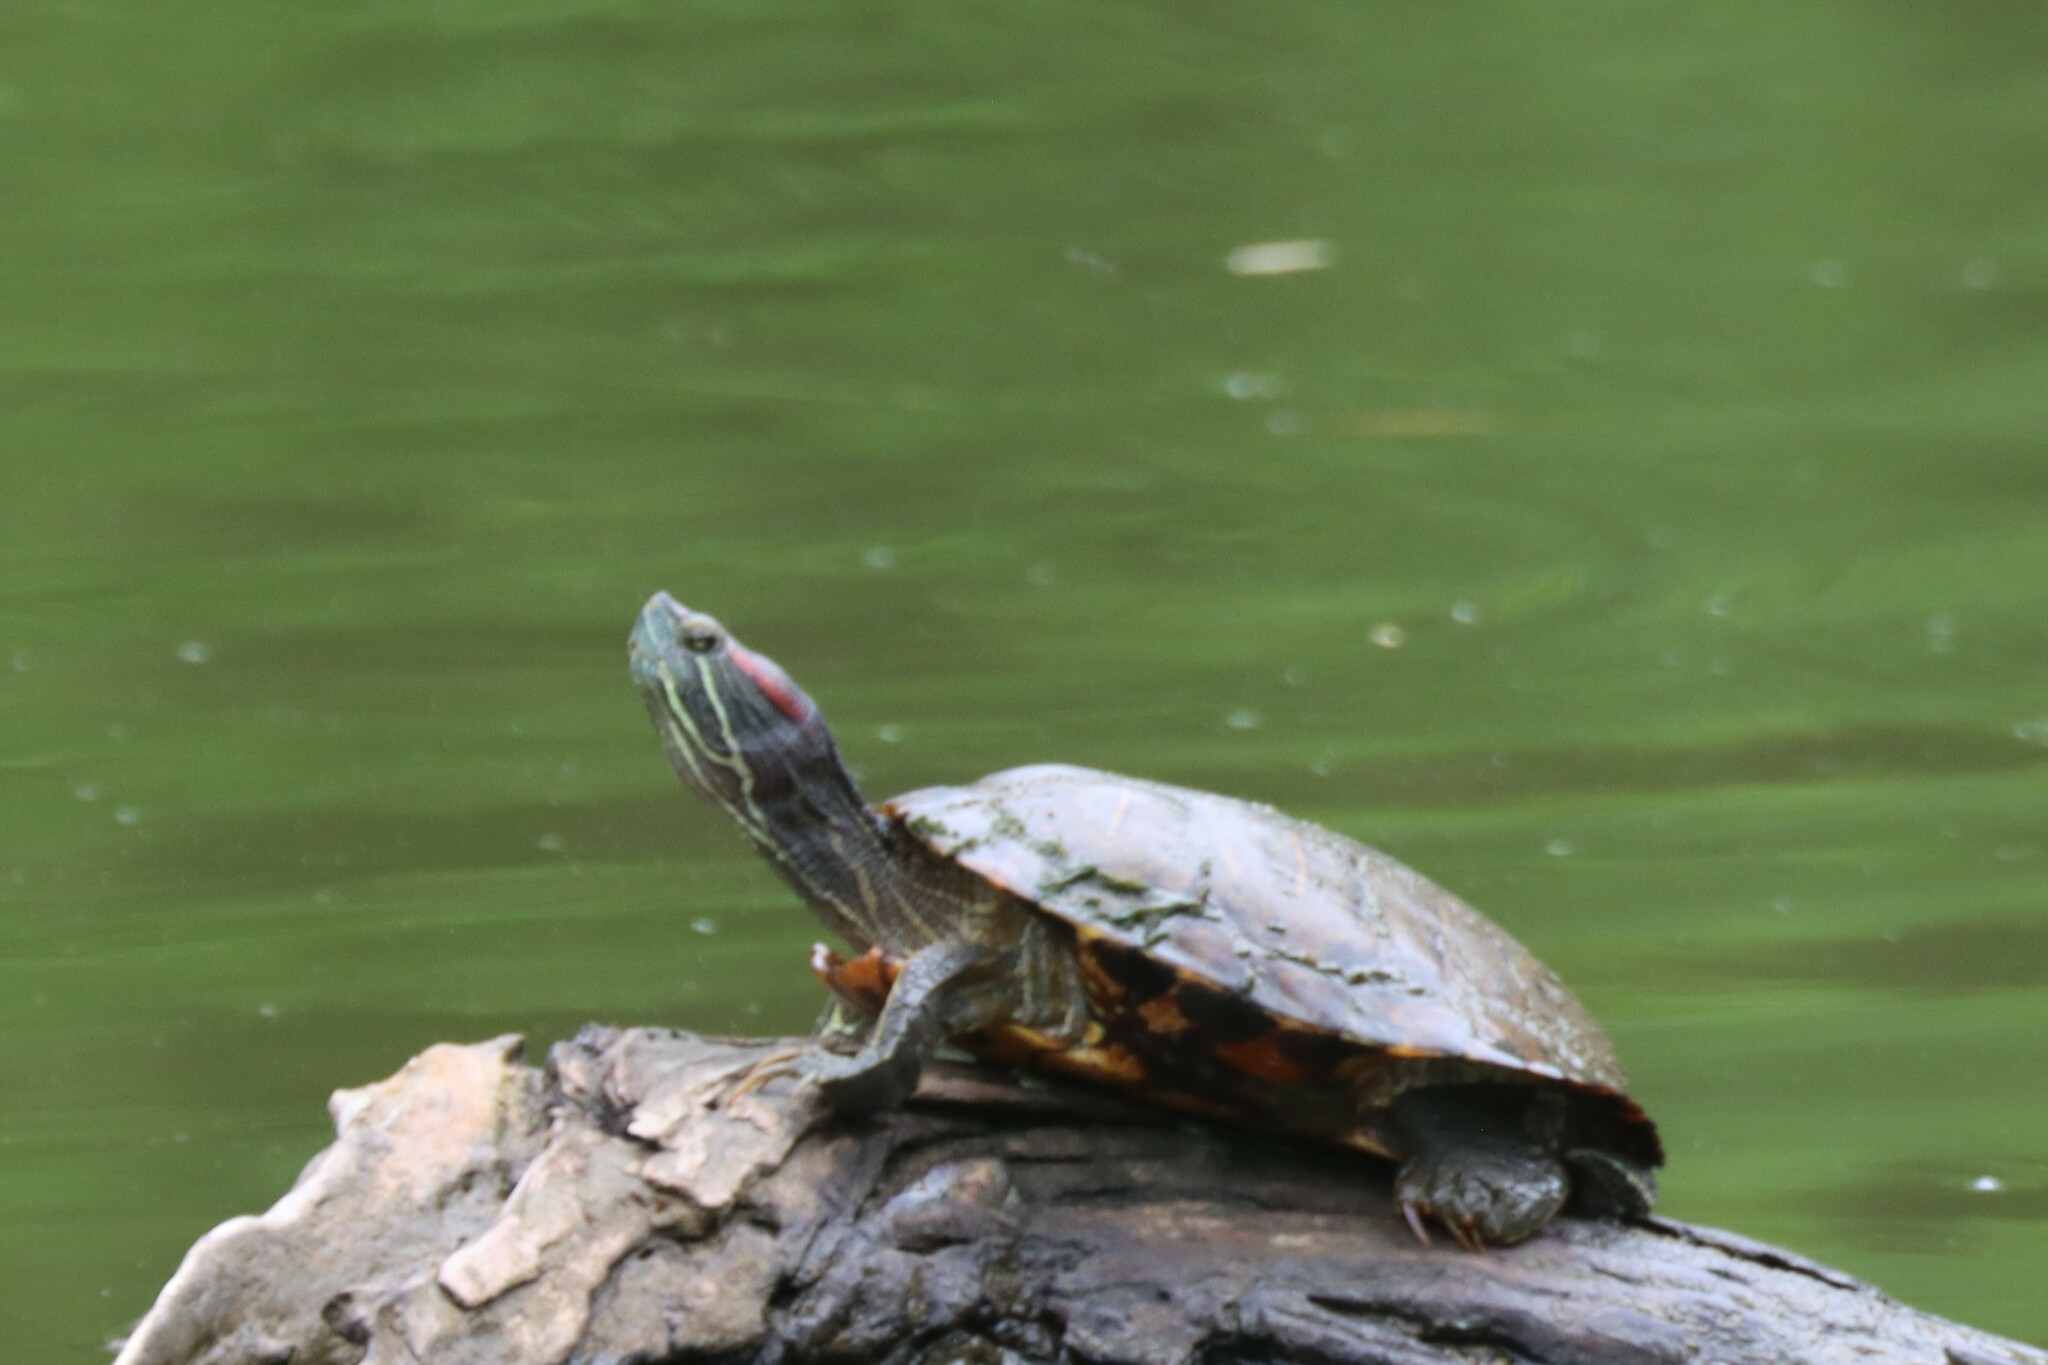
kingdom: Animalia
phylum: Chordata
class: Testudines
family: Emydidae
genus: Trachemys
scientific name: Trachemys scripta
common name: Slider
